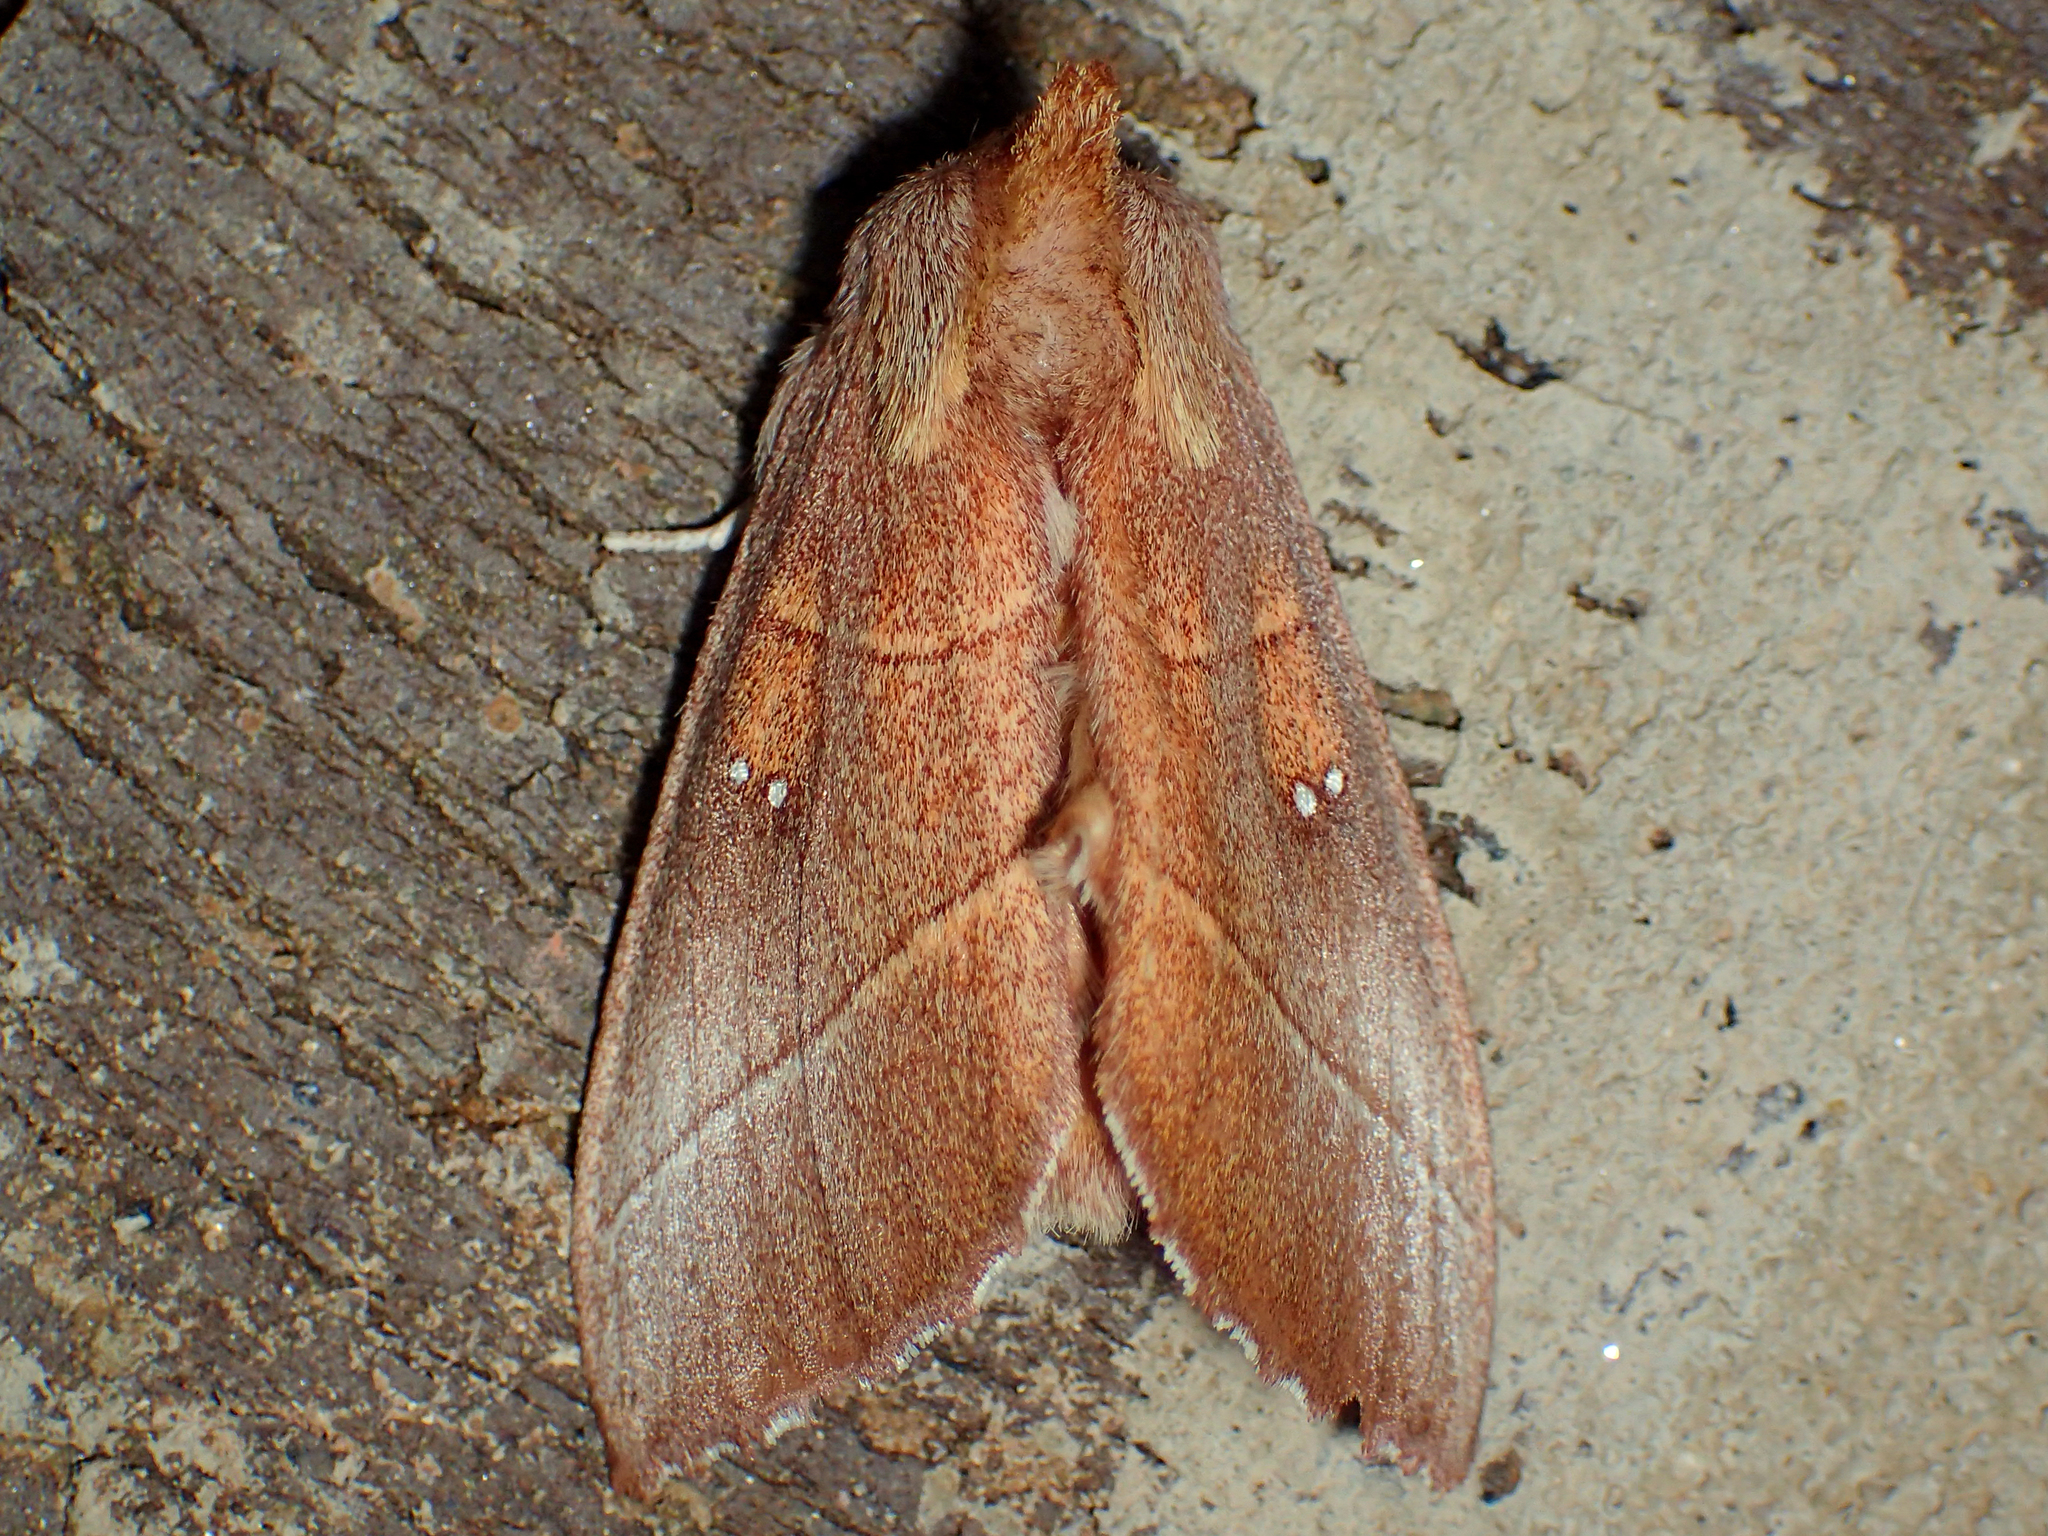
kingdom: Animalia
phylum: Arthropoda
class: Insecta
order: Lepidoptera
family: Notodontidae
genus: Nadata
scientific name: Nadata gibbosa
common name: White-dotted prominent
